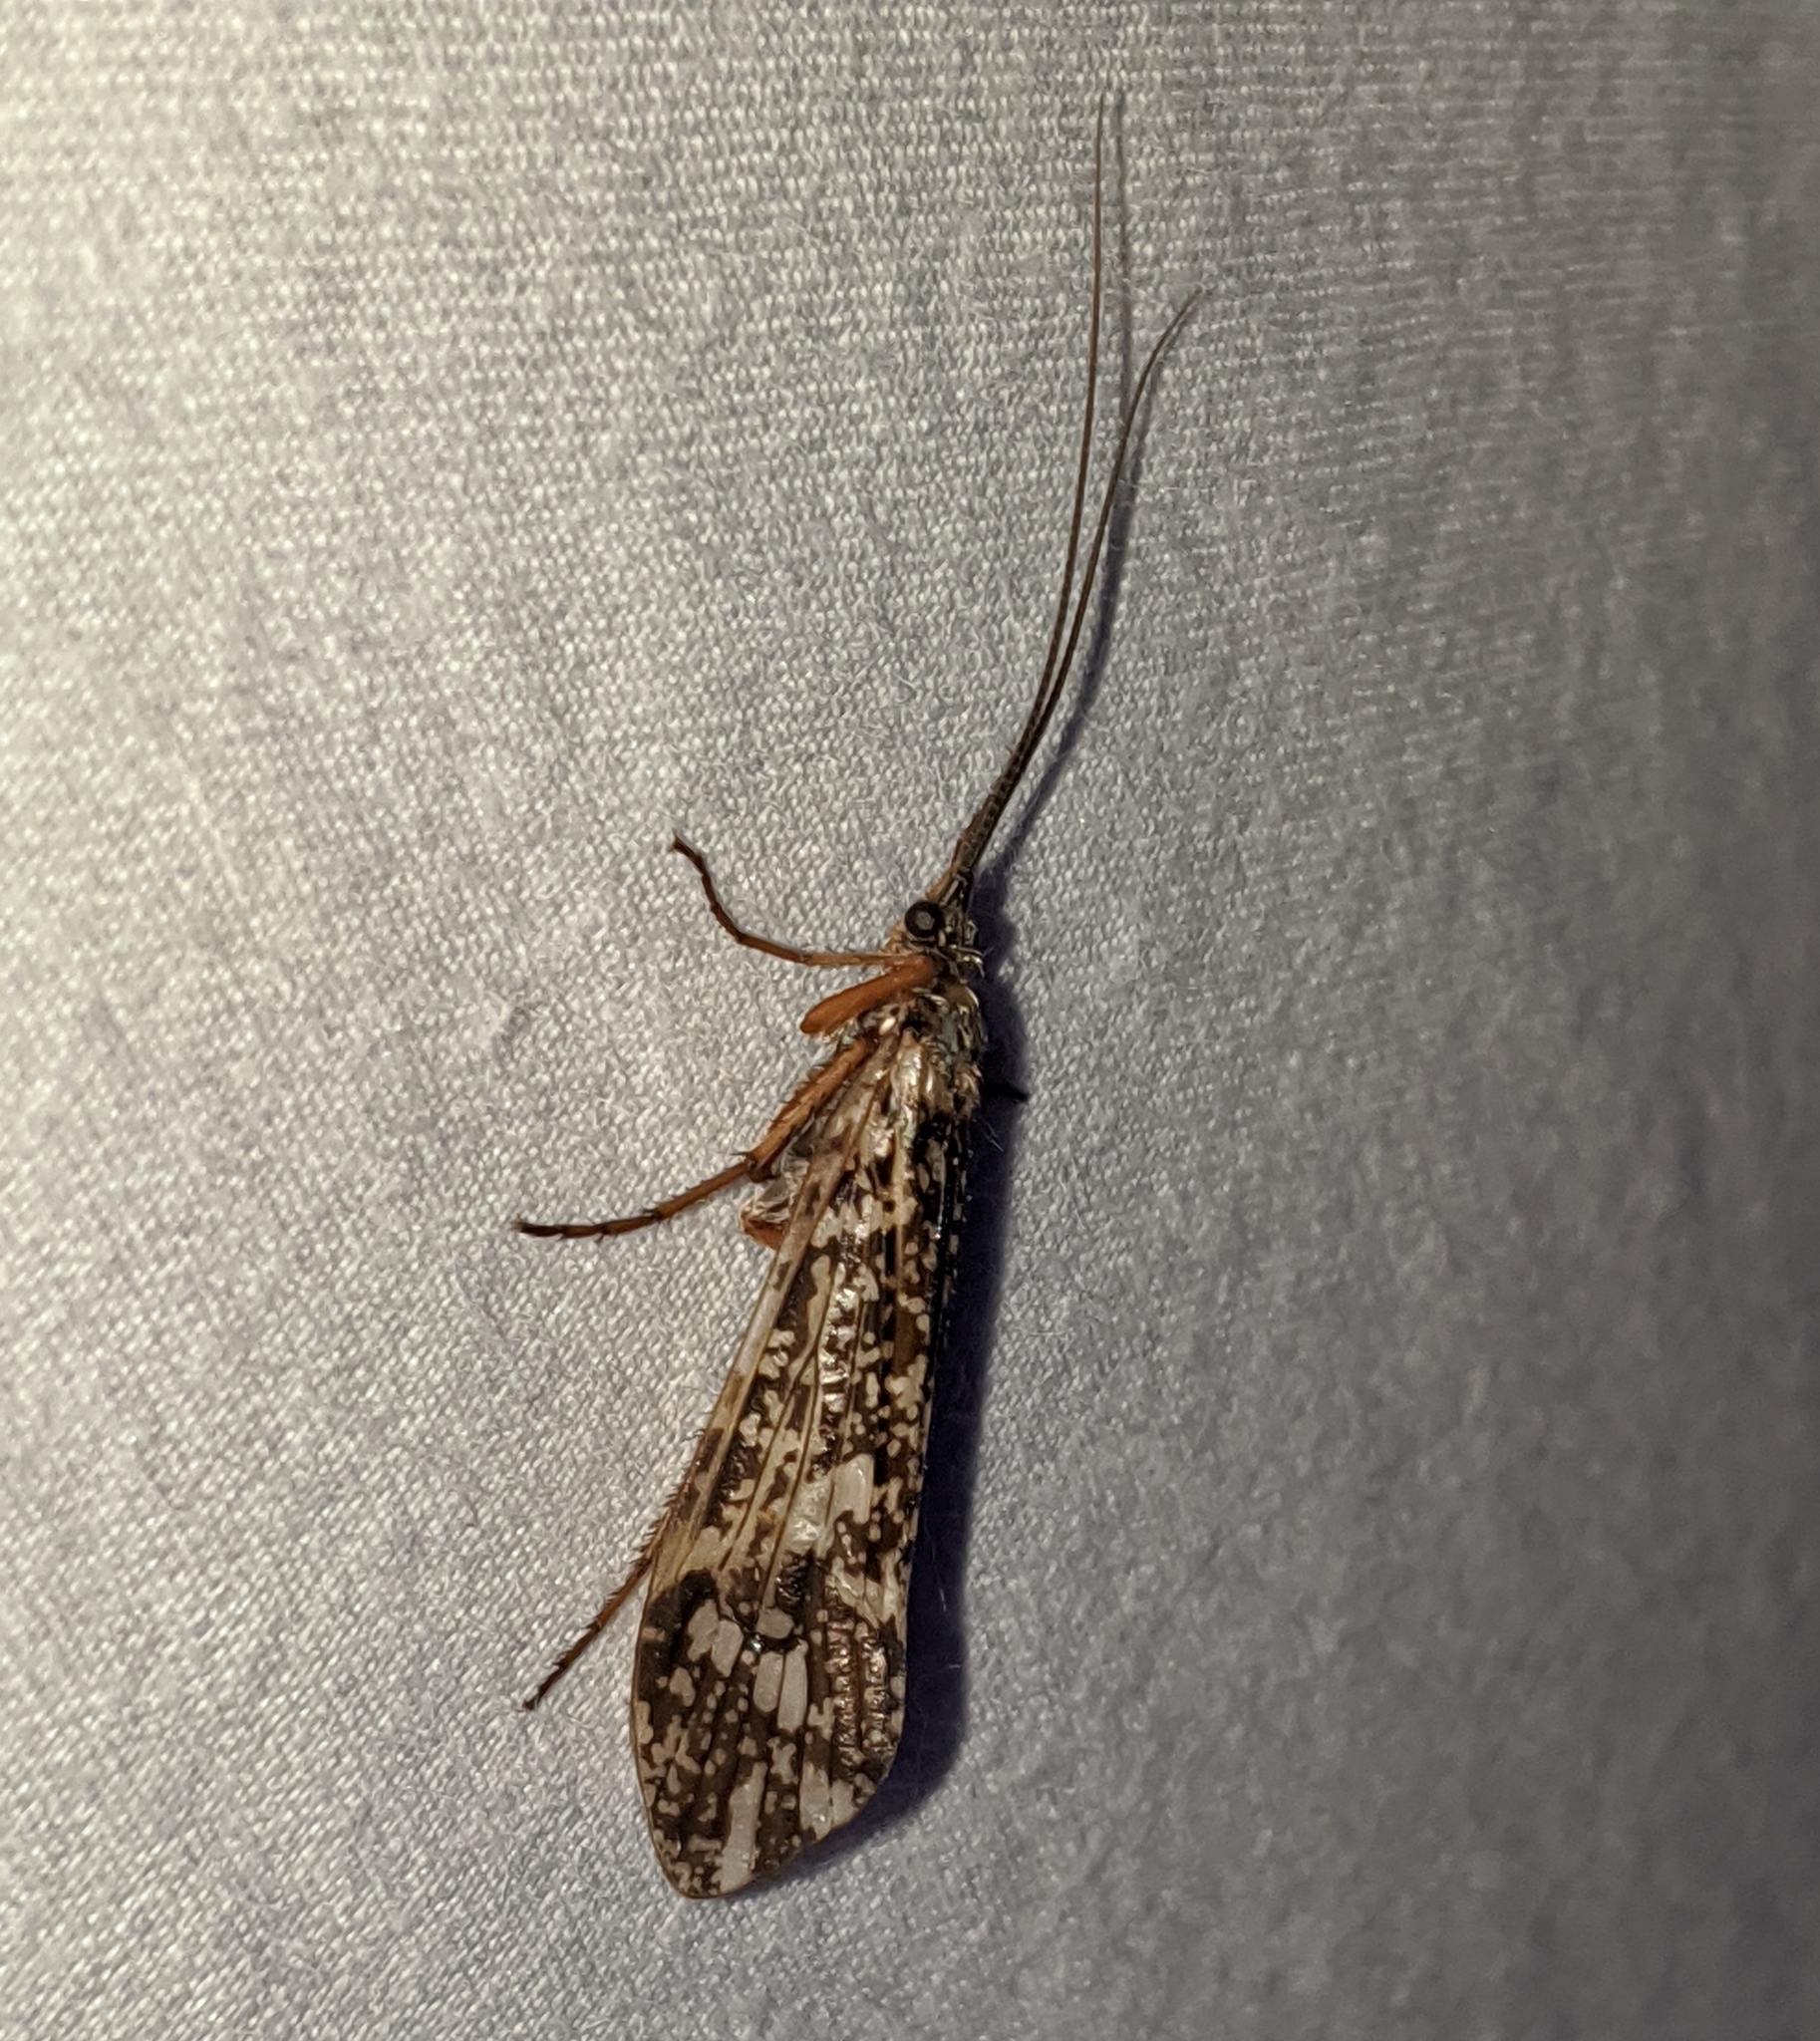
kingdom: Animalia
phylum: Arthropoda
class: Insecta
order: Trichoptera
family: Limnephilidae
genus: Clistoronia
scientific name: Clistoronia magnifica
